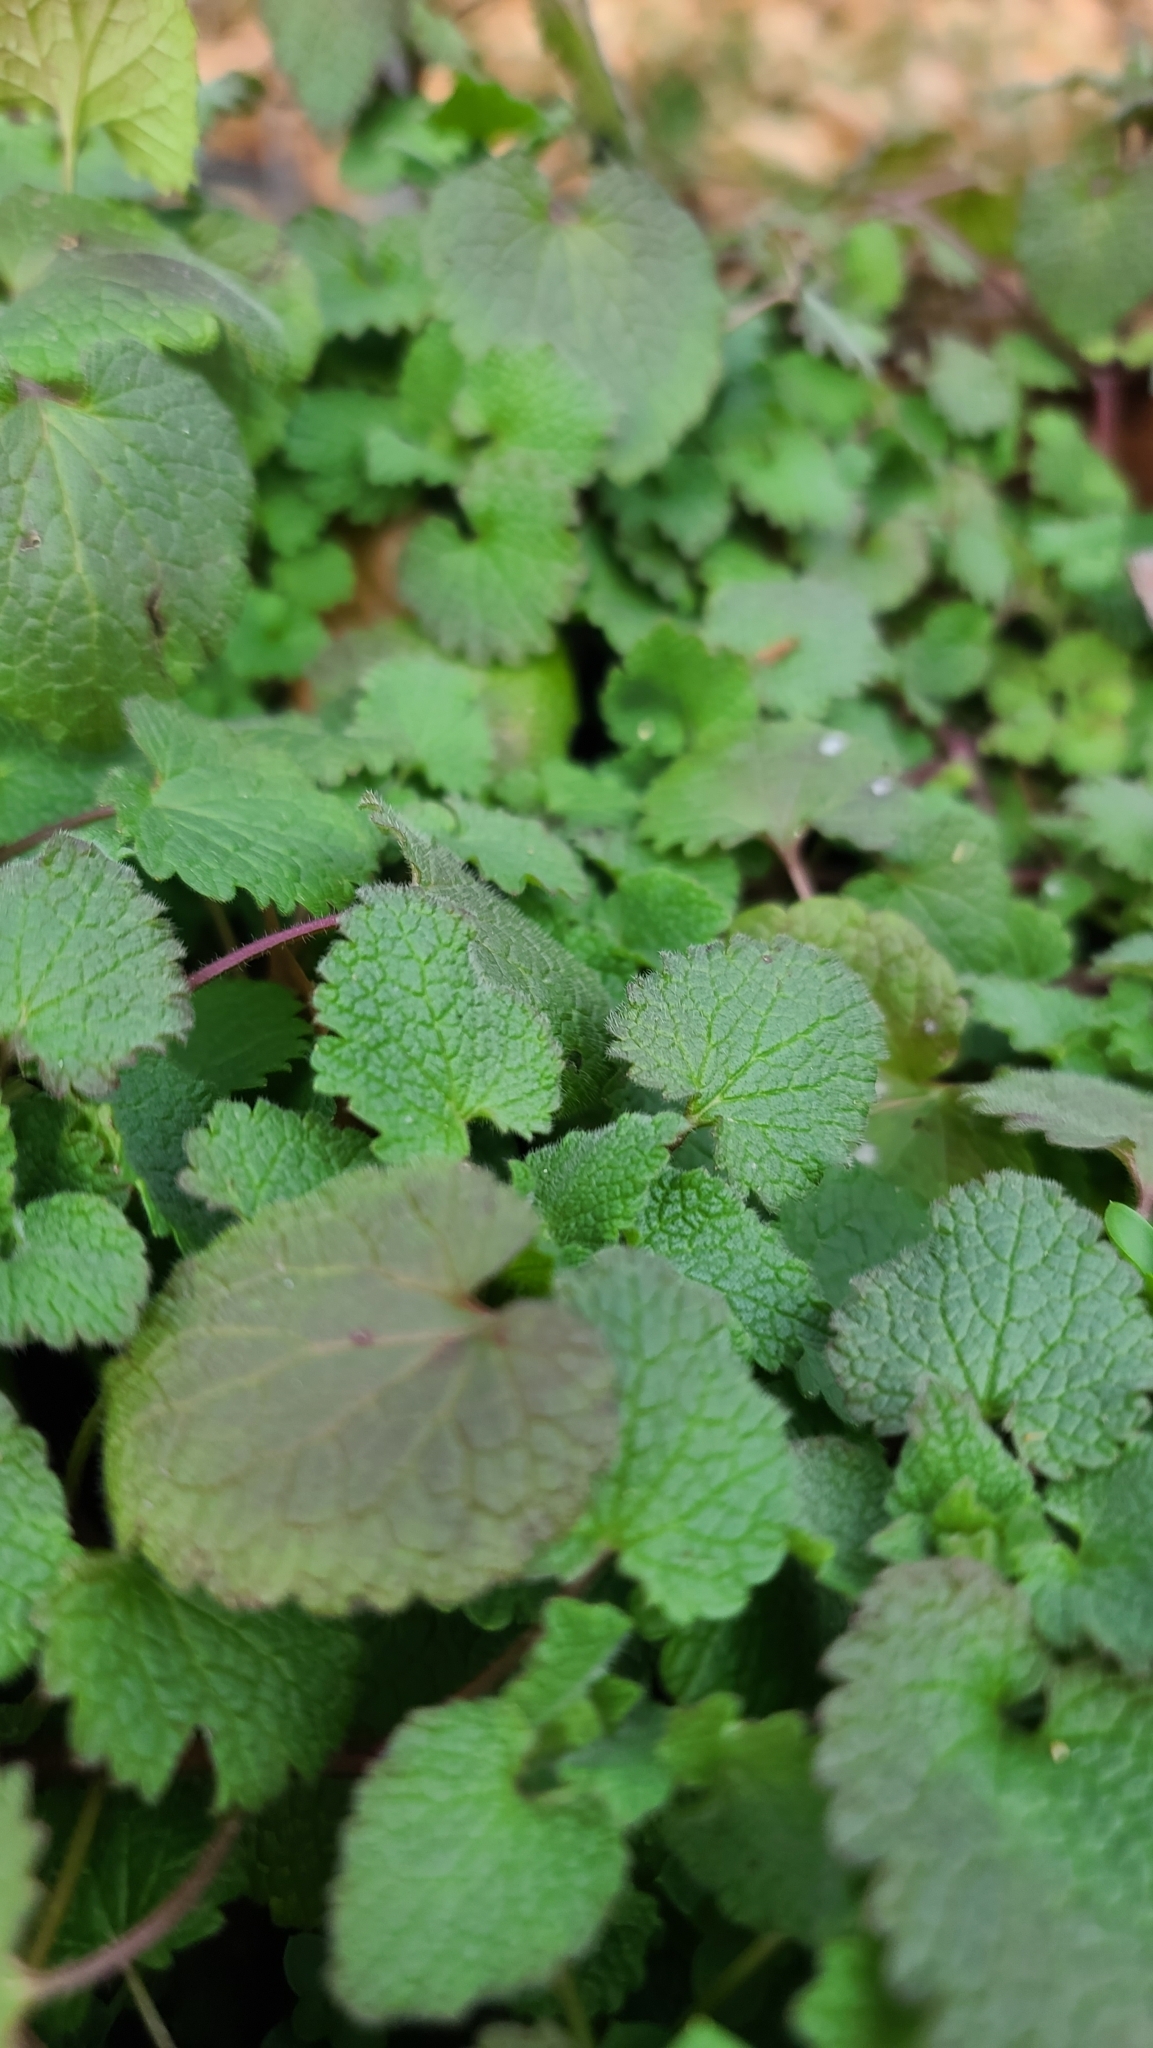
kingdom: Plantae
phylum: Tracheophyta
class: Magnoliopsida
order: Lamiales
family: Lamiaceae
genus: Lamium
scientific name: Lamium purpureum
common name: Red dead-nettle
